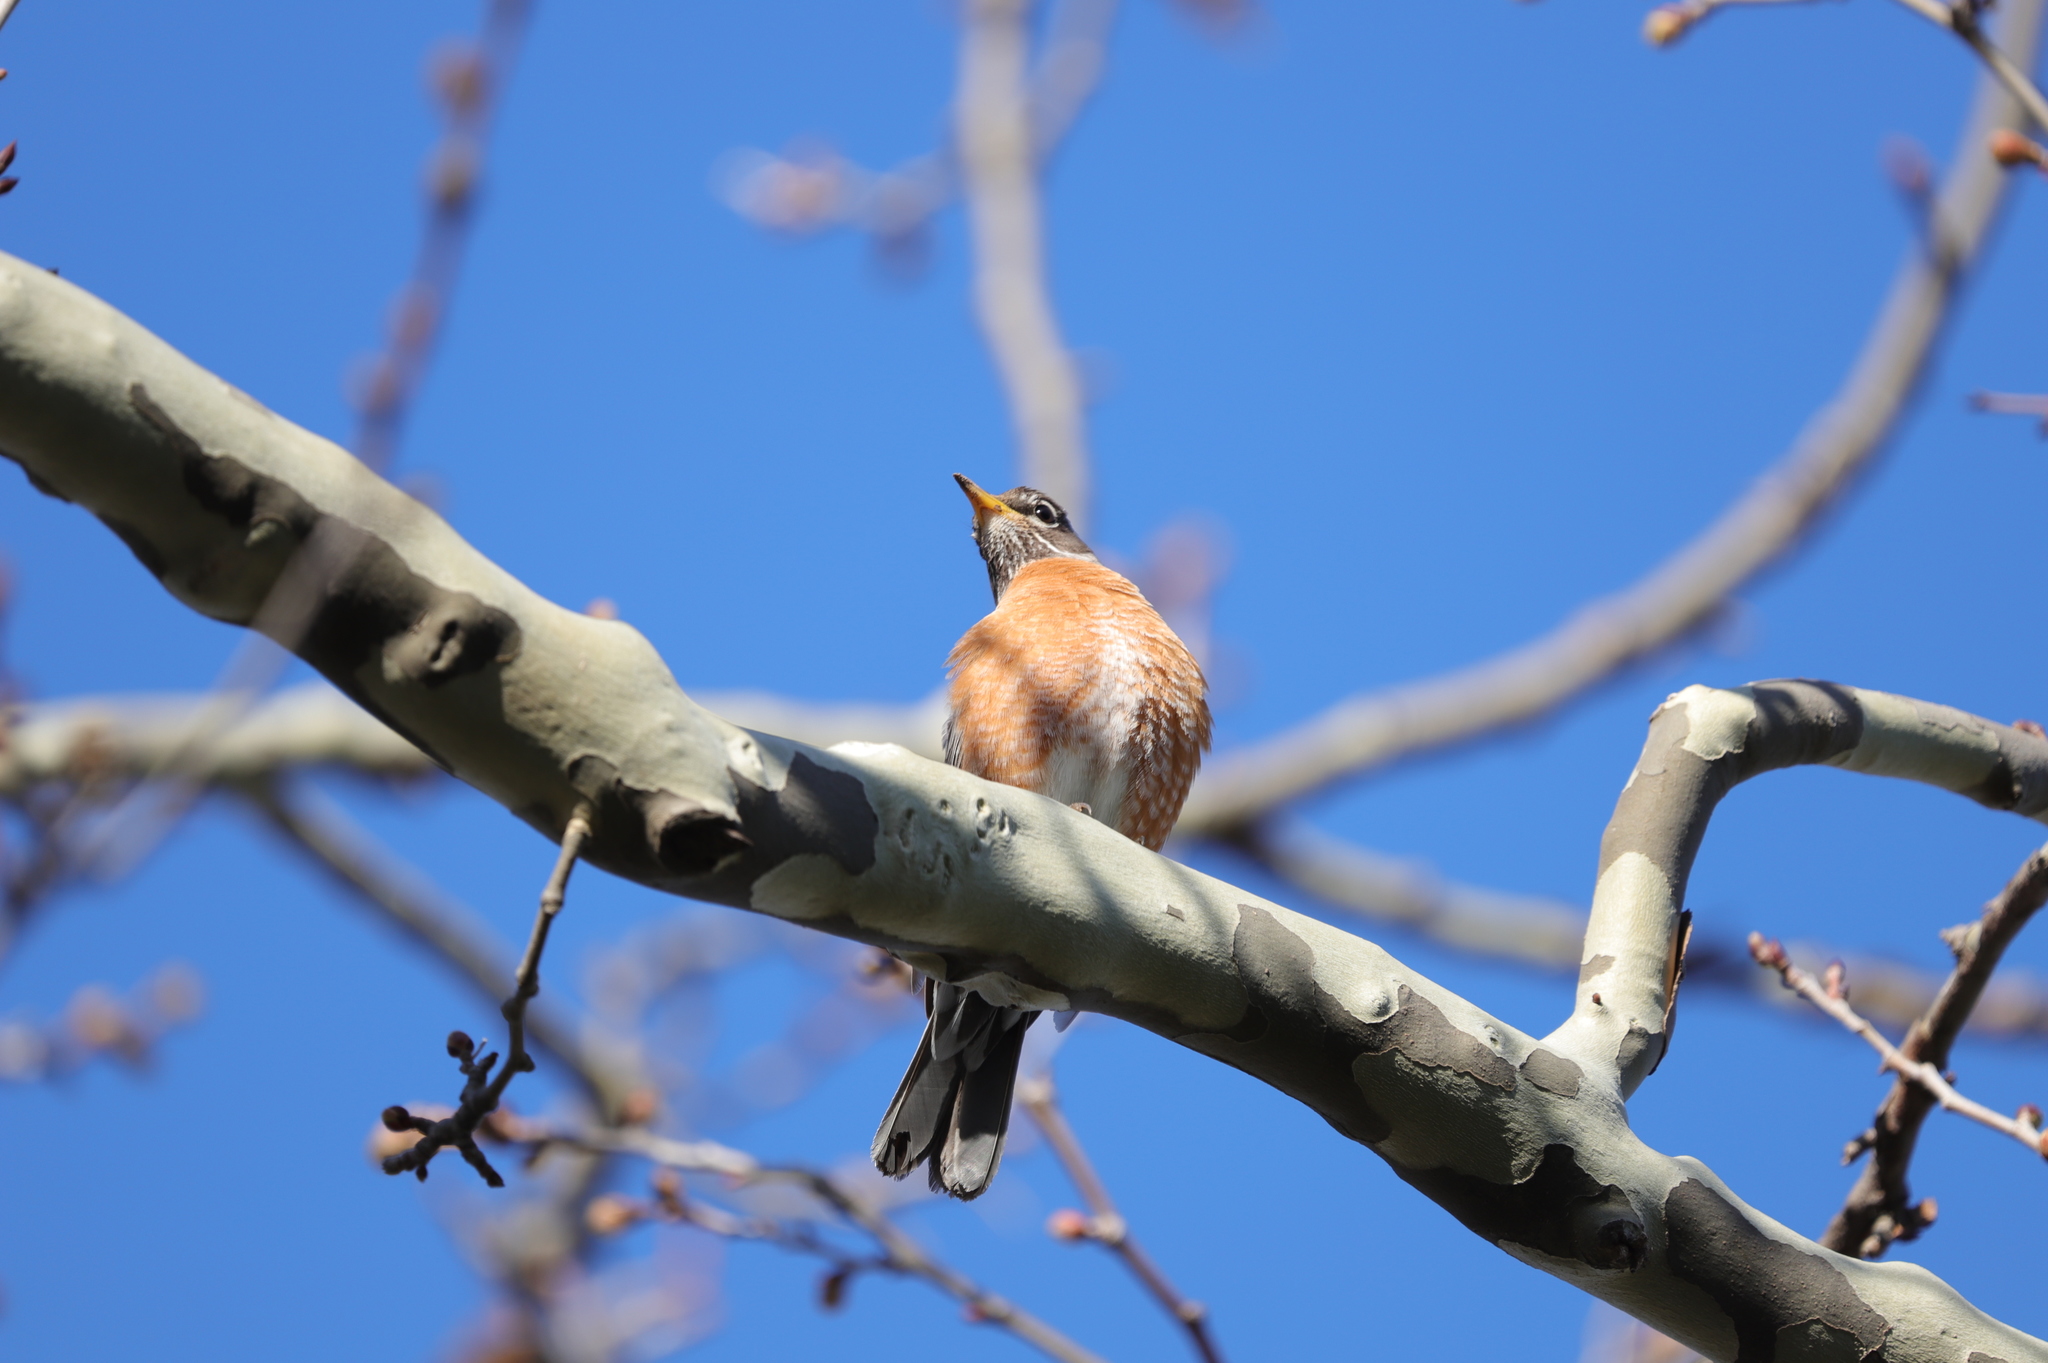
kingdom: Animalia
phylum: Chordata
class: Aves
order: Passeriformes
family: Turdidae
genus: Turdus
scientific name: Turdus migratorius
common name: American robin
